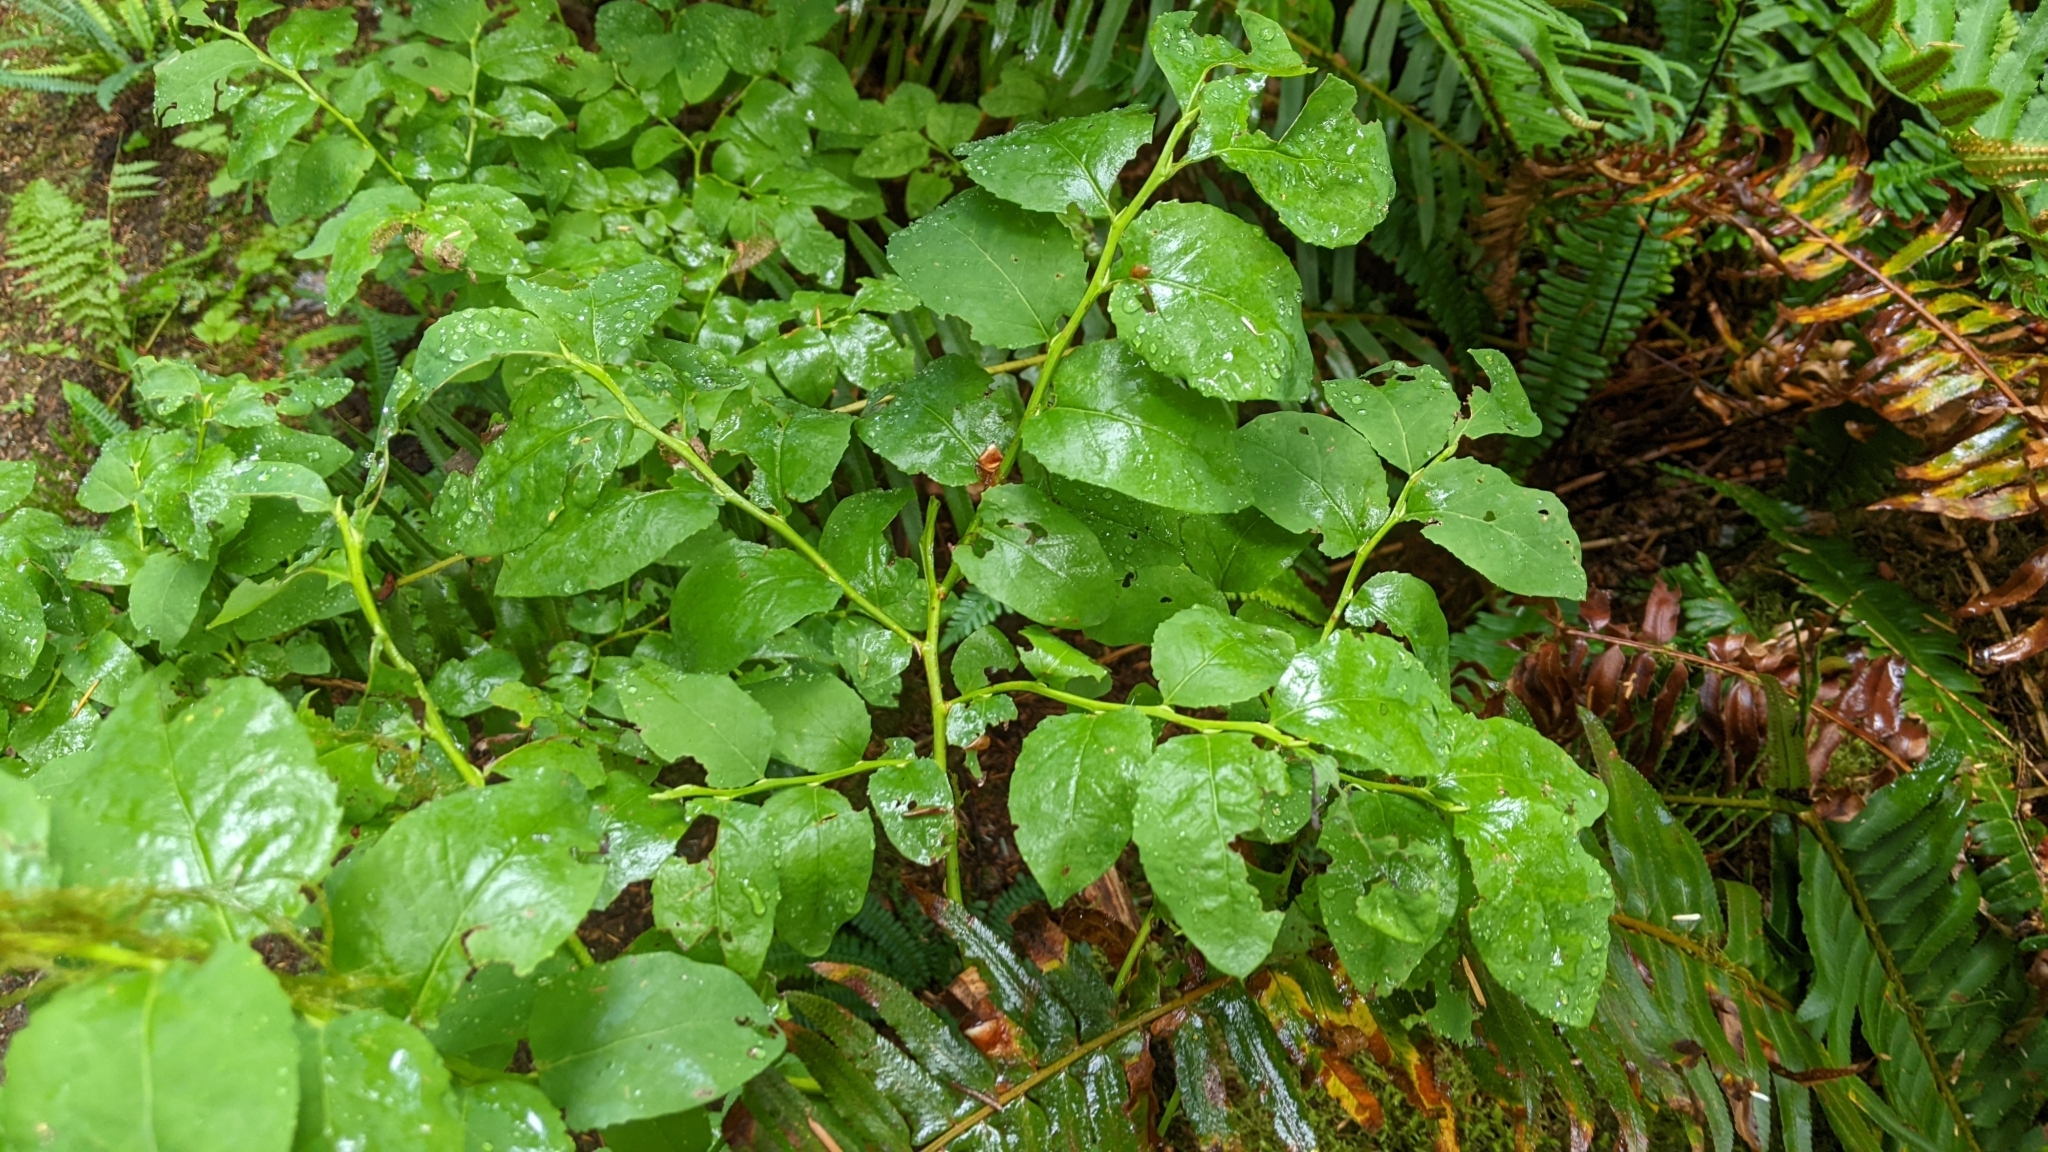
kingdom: Plantae
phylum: Tracheophyta
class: Magnoliopsida
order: Ericales
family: Ericaceae
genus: Vaccinium
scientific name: Vaccinium ovalifolium
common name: Early blueberry
